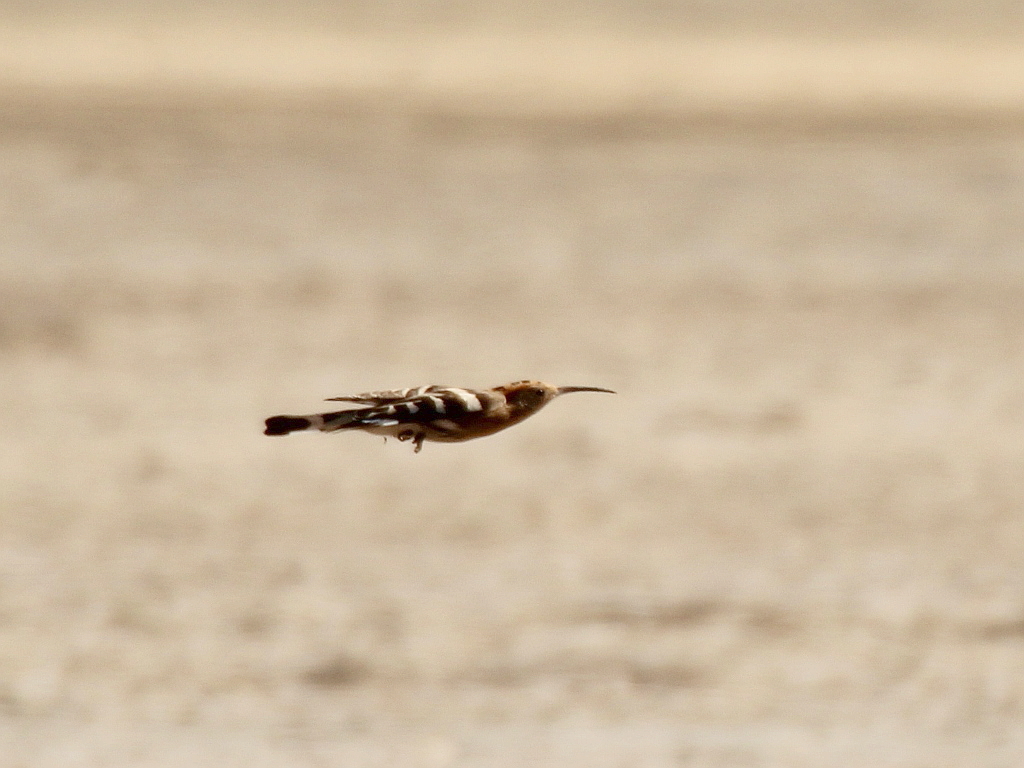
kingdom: Animalia
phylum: Chordata
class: Aves
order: Bucerotiformes
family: Upupidae
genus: Upupa
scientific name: Upupa epops
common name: Eurasian hoopoe
